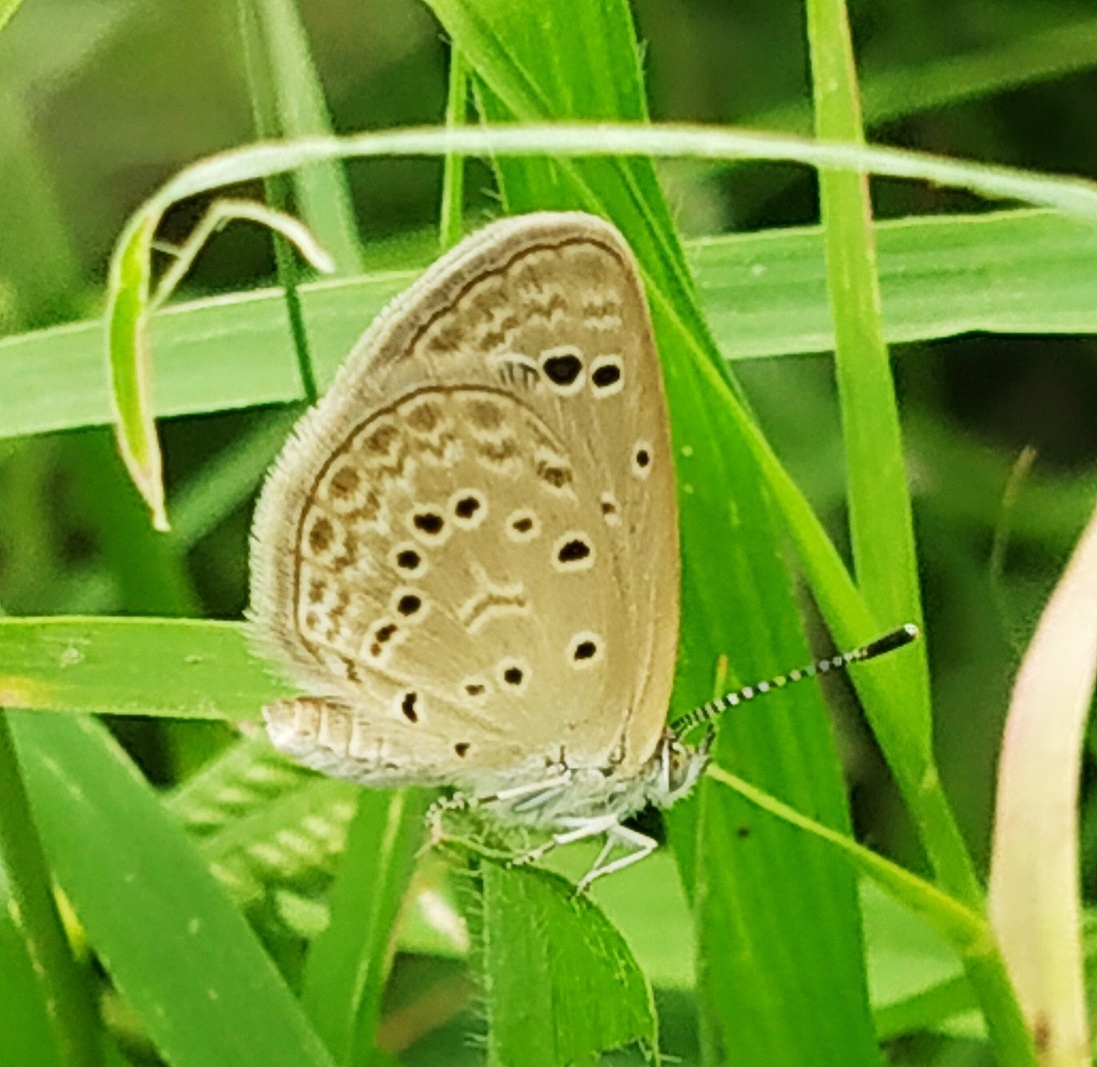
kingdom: Animalia
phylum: Arthropoda
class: Insecta
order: Lepidoptera
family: Lycaenidae
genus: Zizeeria
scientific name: Zizeeria karsandra
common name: Dark grass blue
